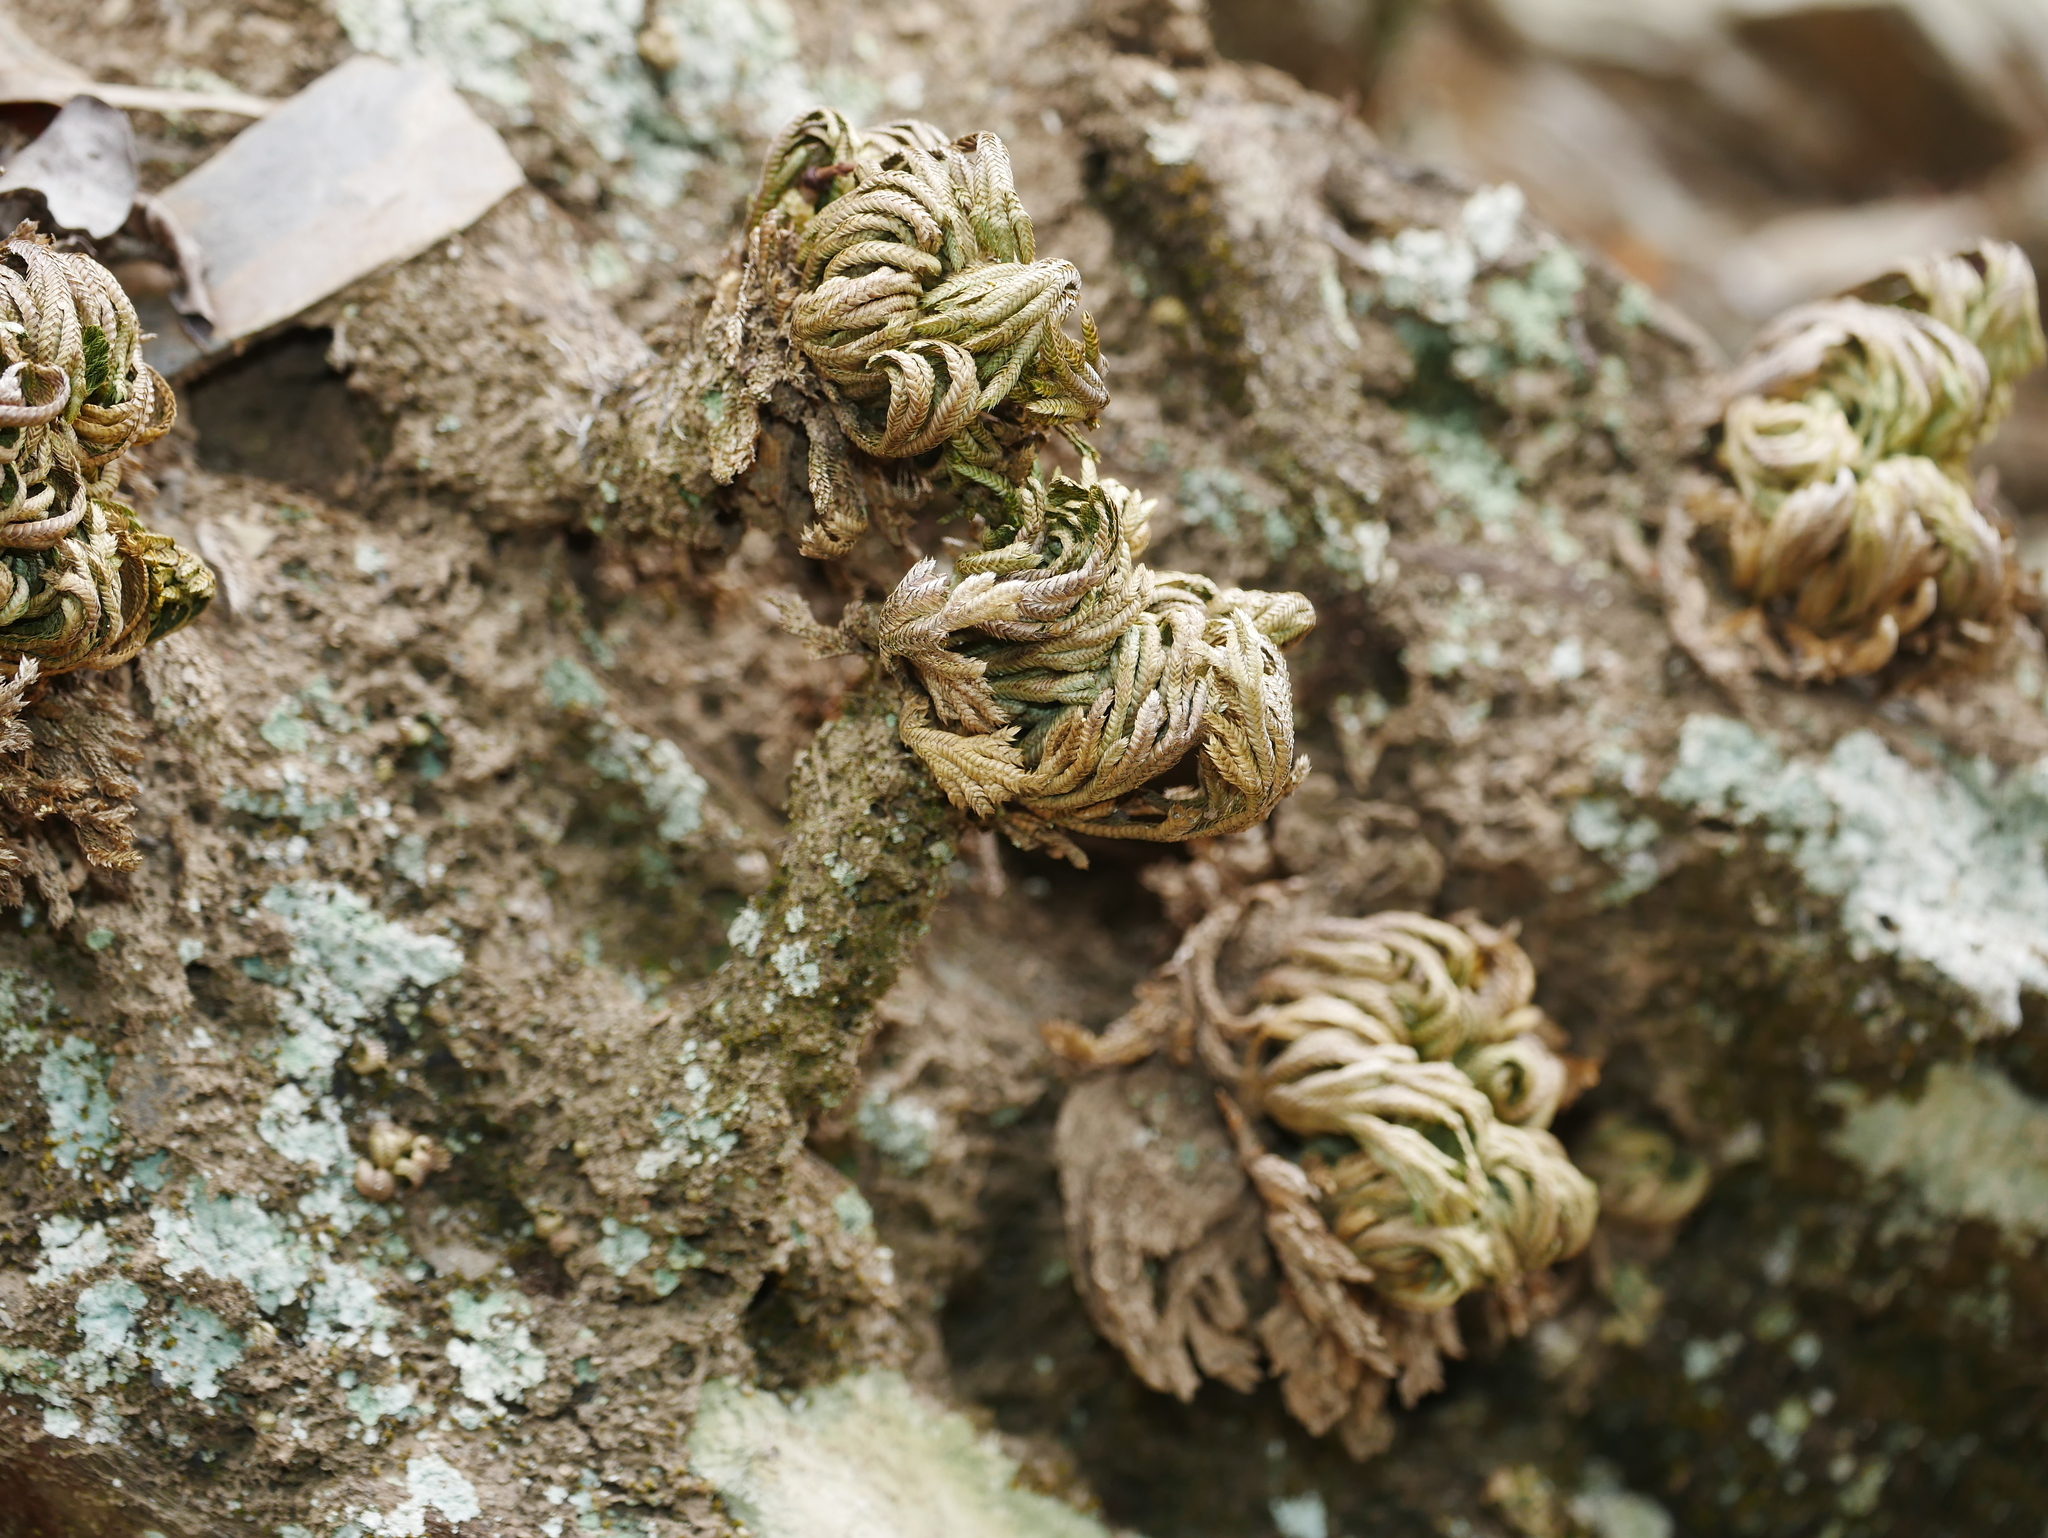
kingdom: Plantae
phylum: Tracheophyta
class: Lycopodiopsida
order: Selaginellales
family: Selaginellaceae
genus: Selaginella
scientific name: Selaginella tamariscina
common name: Little-club-moss
